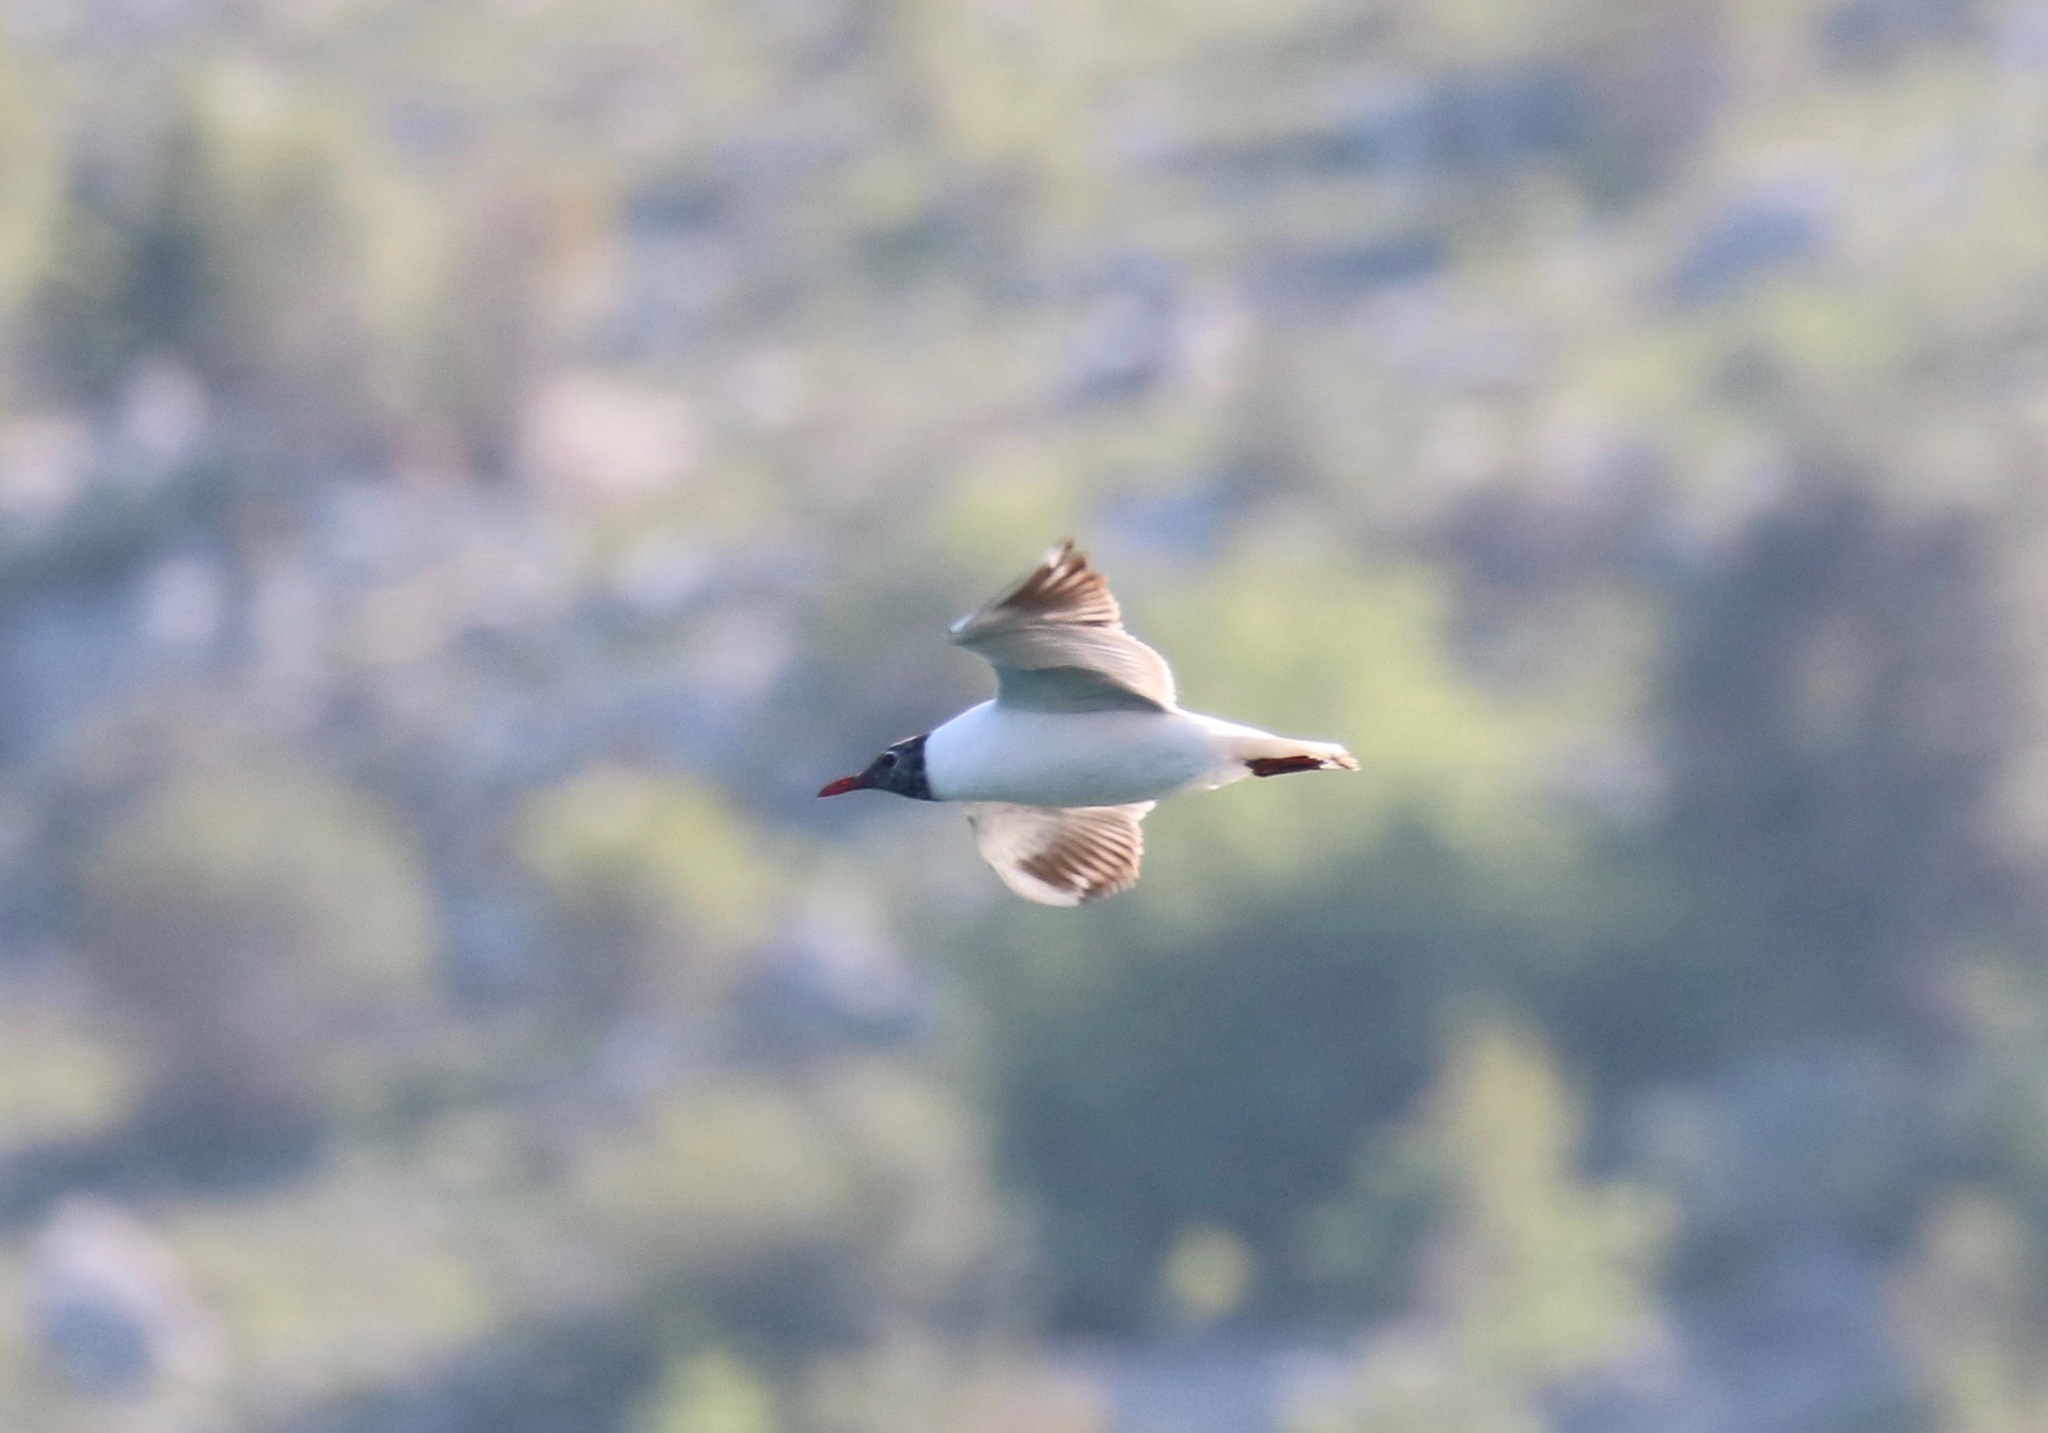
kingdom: Animalia
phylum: Chordata
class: Aves
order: Charadriiformes
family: Laridae
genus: Chroicocephalus
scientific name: Chroicocephalus ridibundus
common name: Black-headed gull
